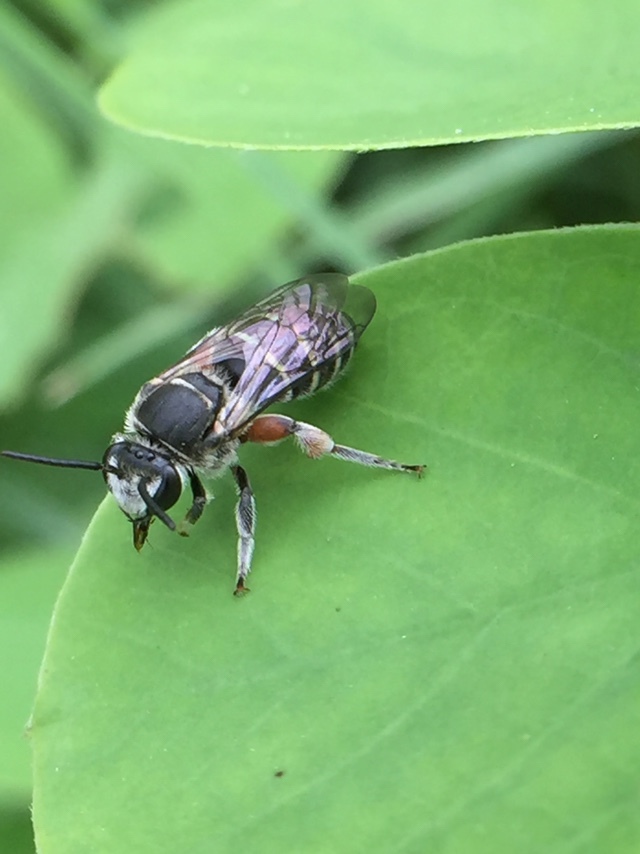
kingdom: Animalia
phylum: Arthropoda
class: Insecta
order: Hymenoptera
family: Halictidae
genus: Nomia
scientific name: Nomia westwoodi
